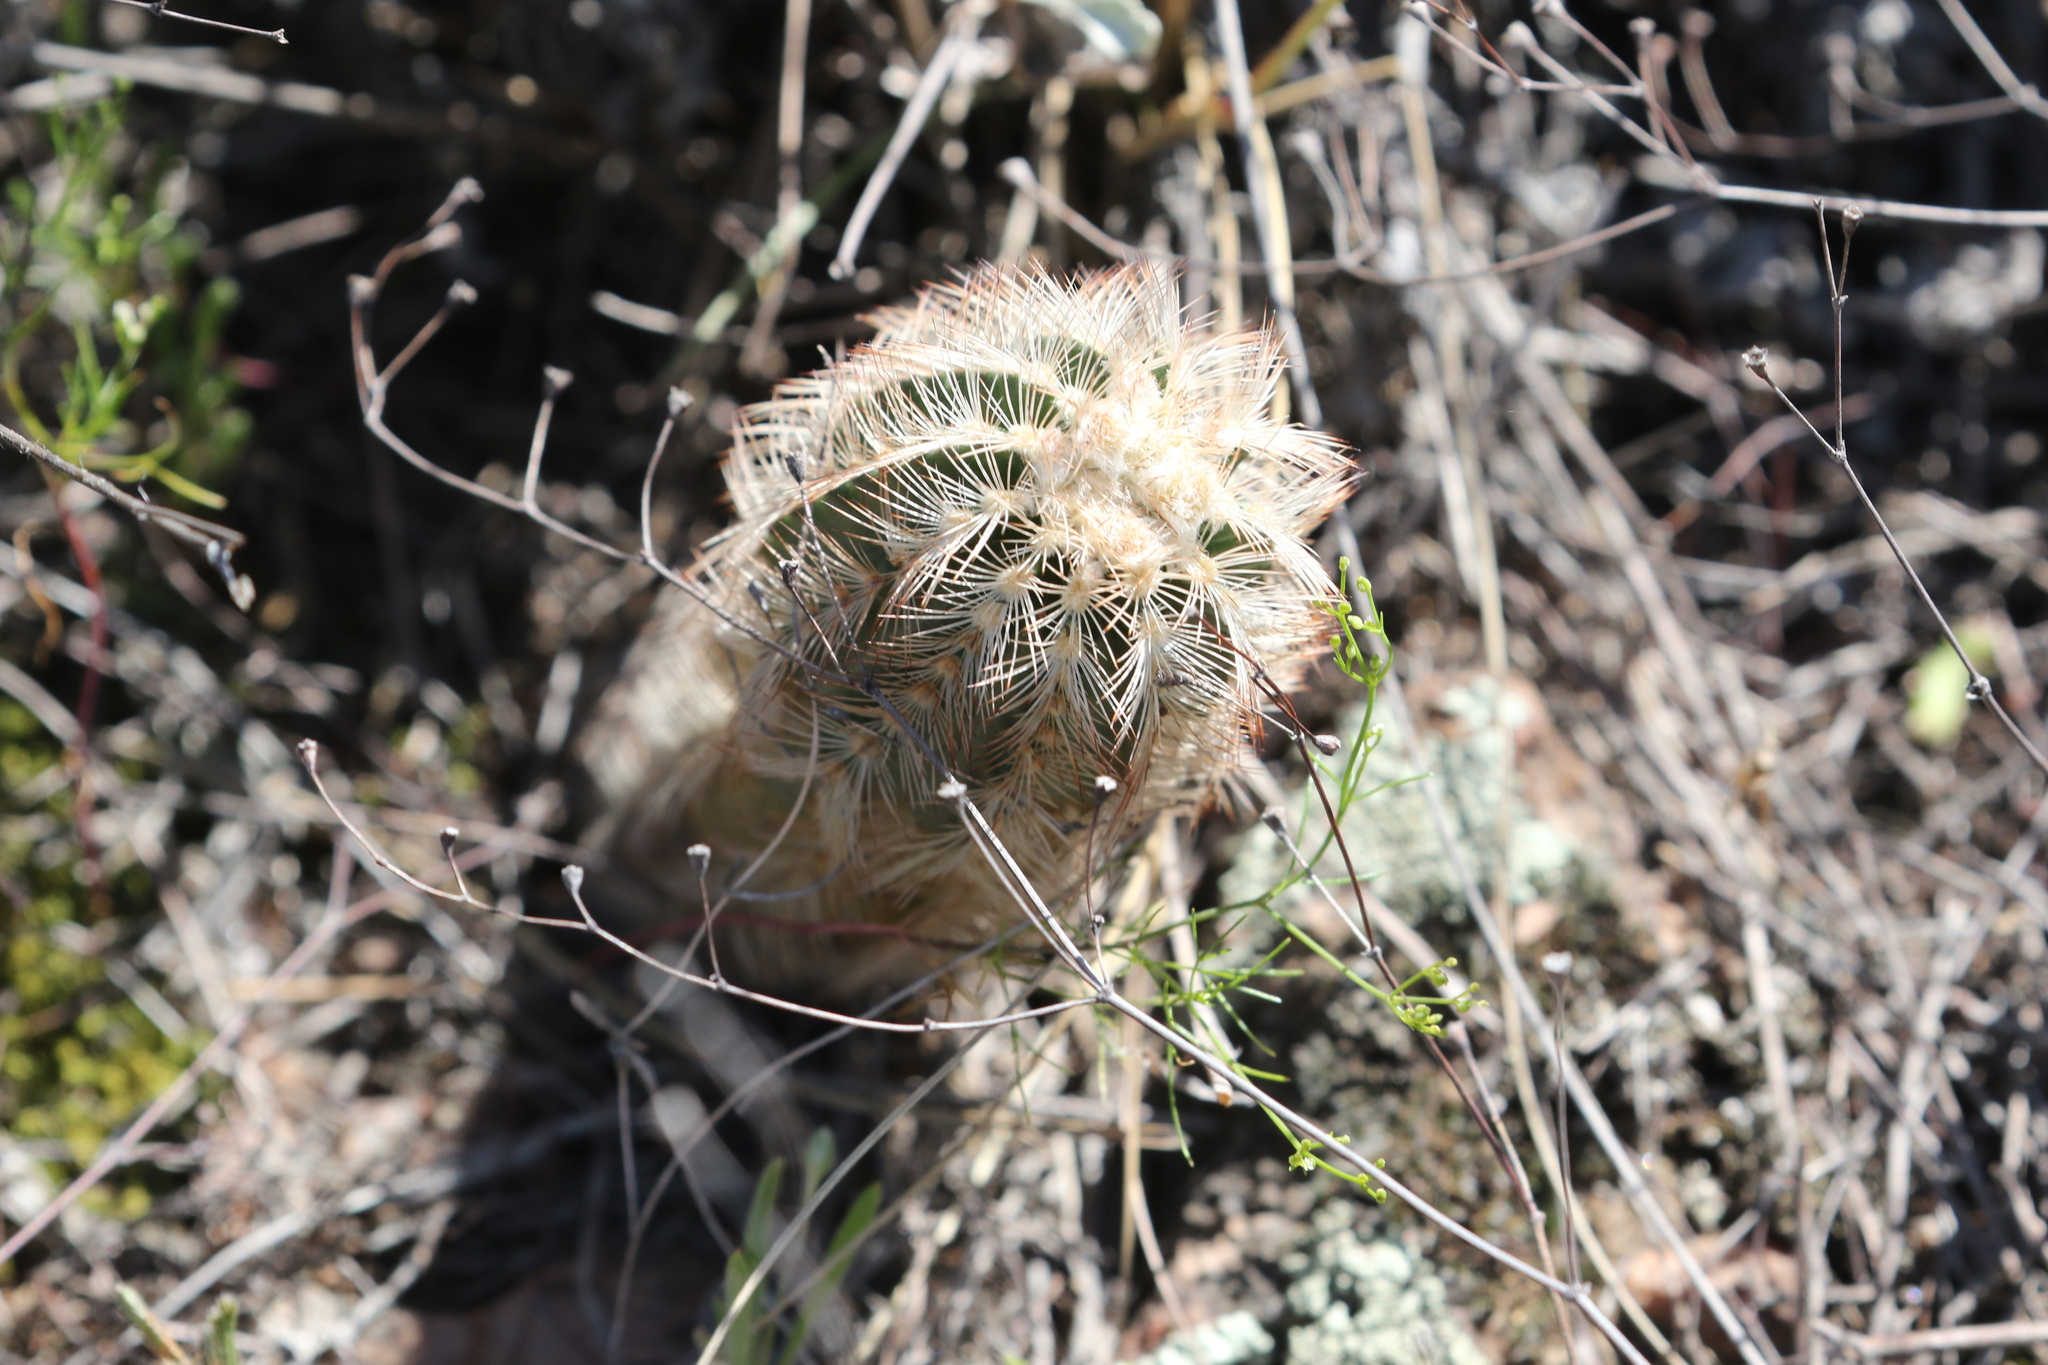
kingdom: Plantae
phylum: Tracheophyta
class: Magnoliopsida
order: Caryophyllales
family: Cactaceae
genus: Echinocereus
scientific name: Echinocereus reichenbachii
